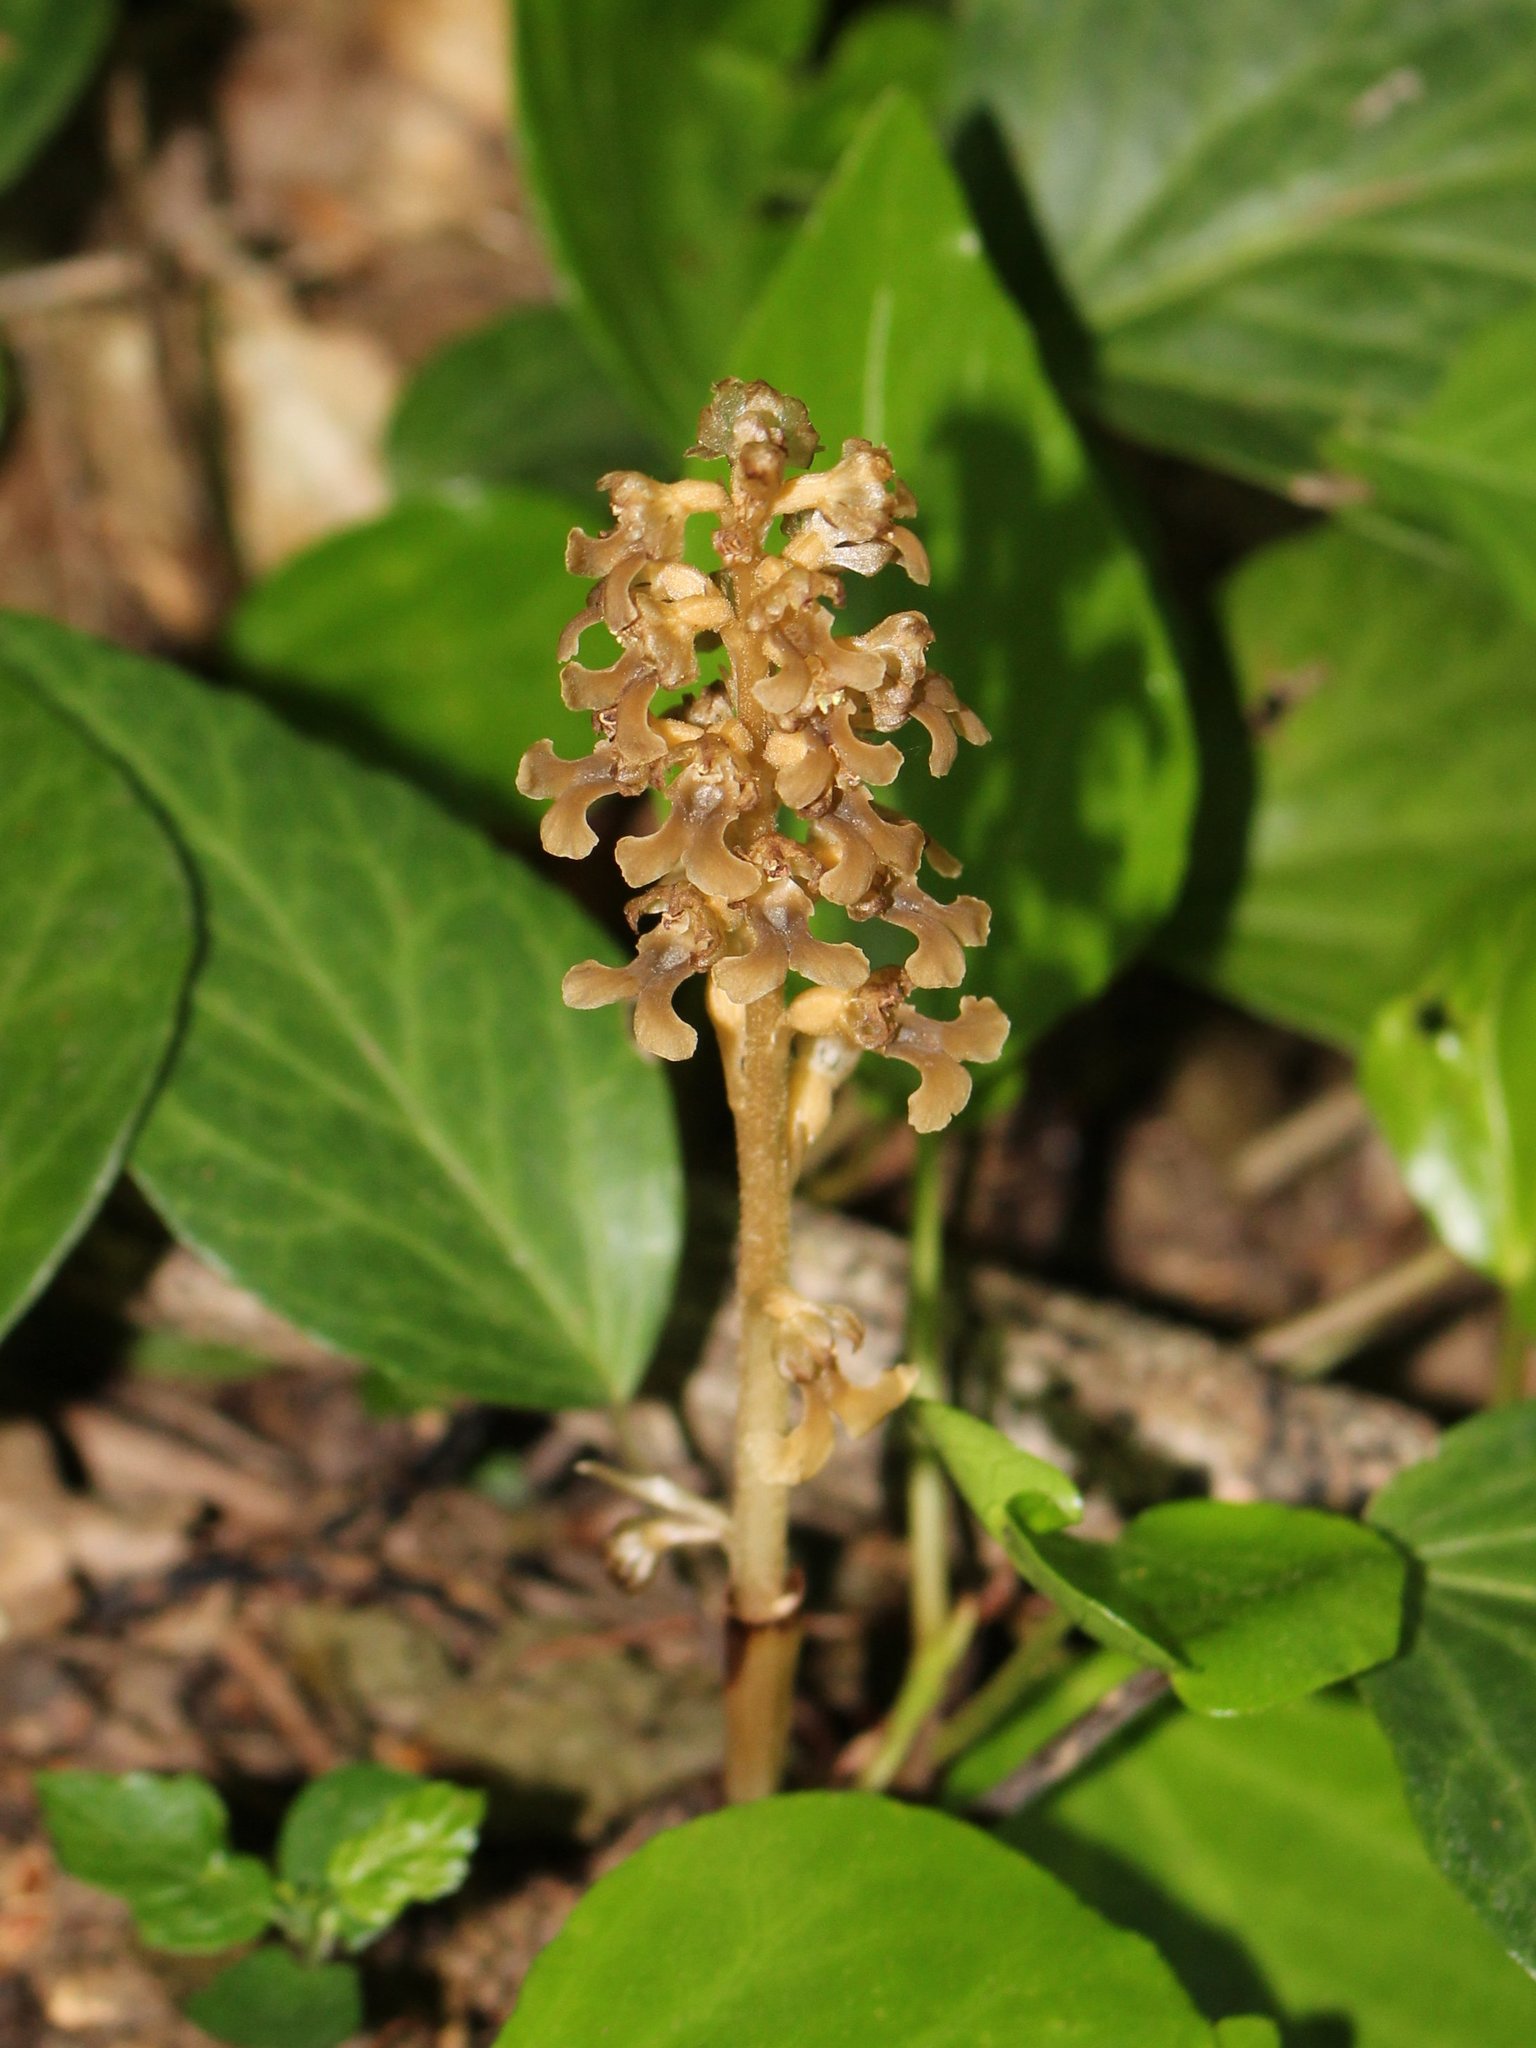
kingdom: Plantae
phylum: Tracheophyta
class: Liliopsida
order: Asparagales
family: Orchidaceae
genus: Neottia
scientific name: Neottia nidus-avis
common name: Bird's-nest orchid
